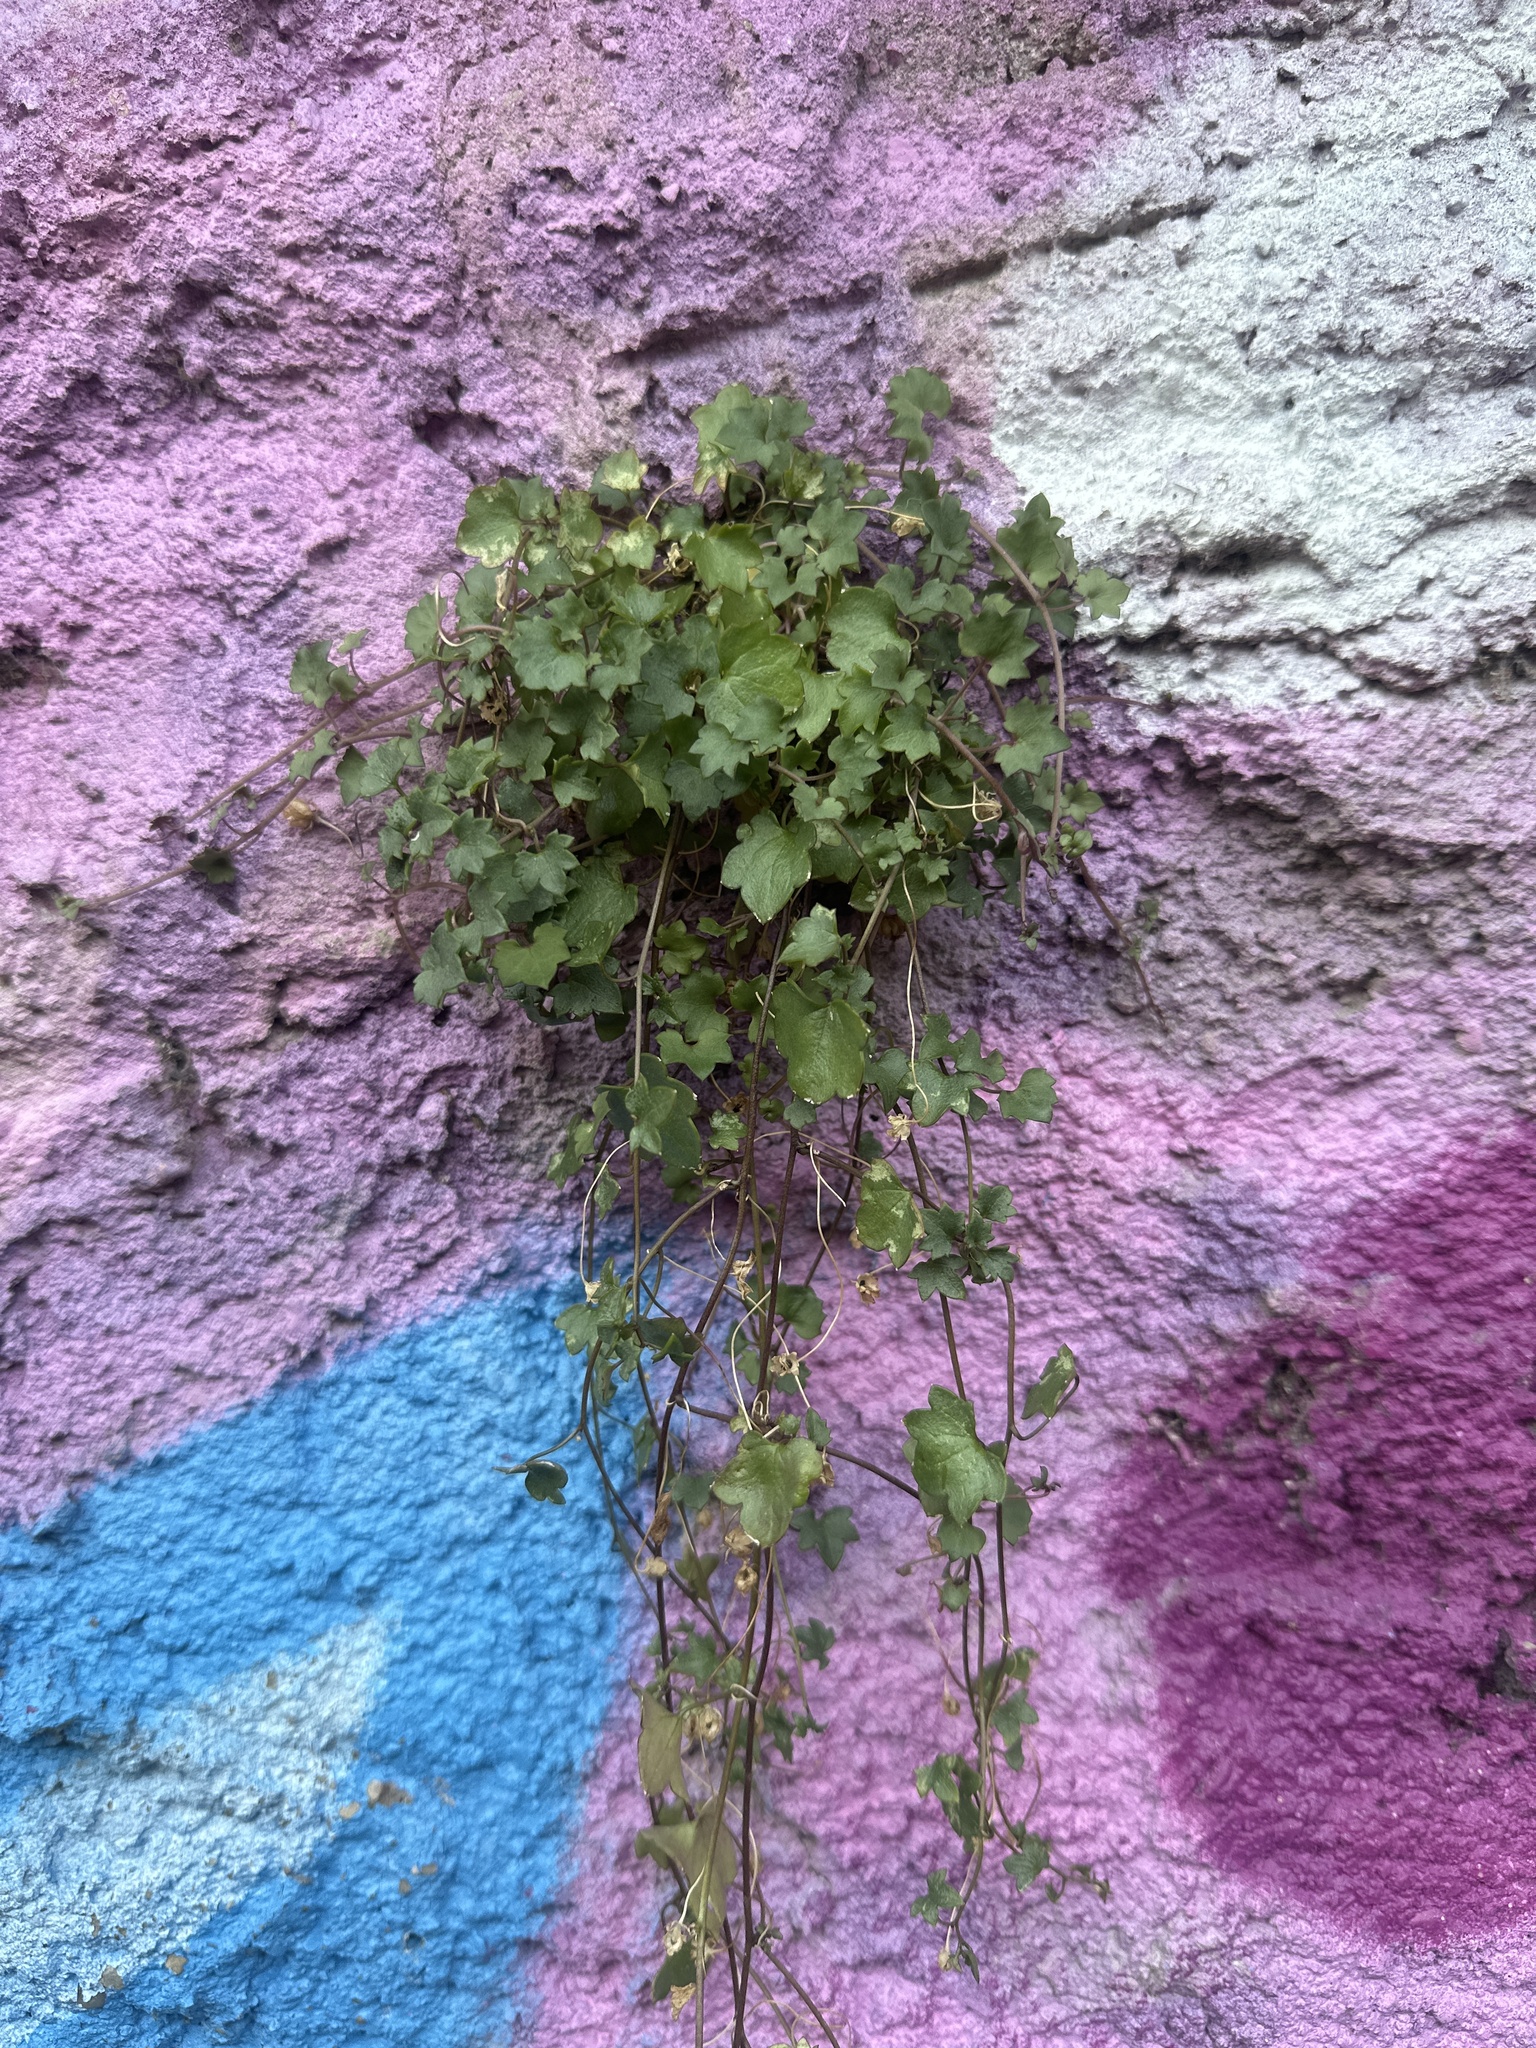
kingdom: Plantae
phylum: Tracheophyta
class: Magnoliopsida
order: Lamiales
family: Plantaginaceae
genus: Cymbalaria
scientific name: Cymbalaria muralis
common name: Ivy-leaved toadflax
